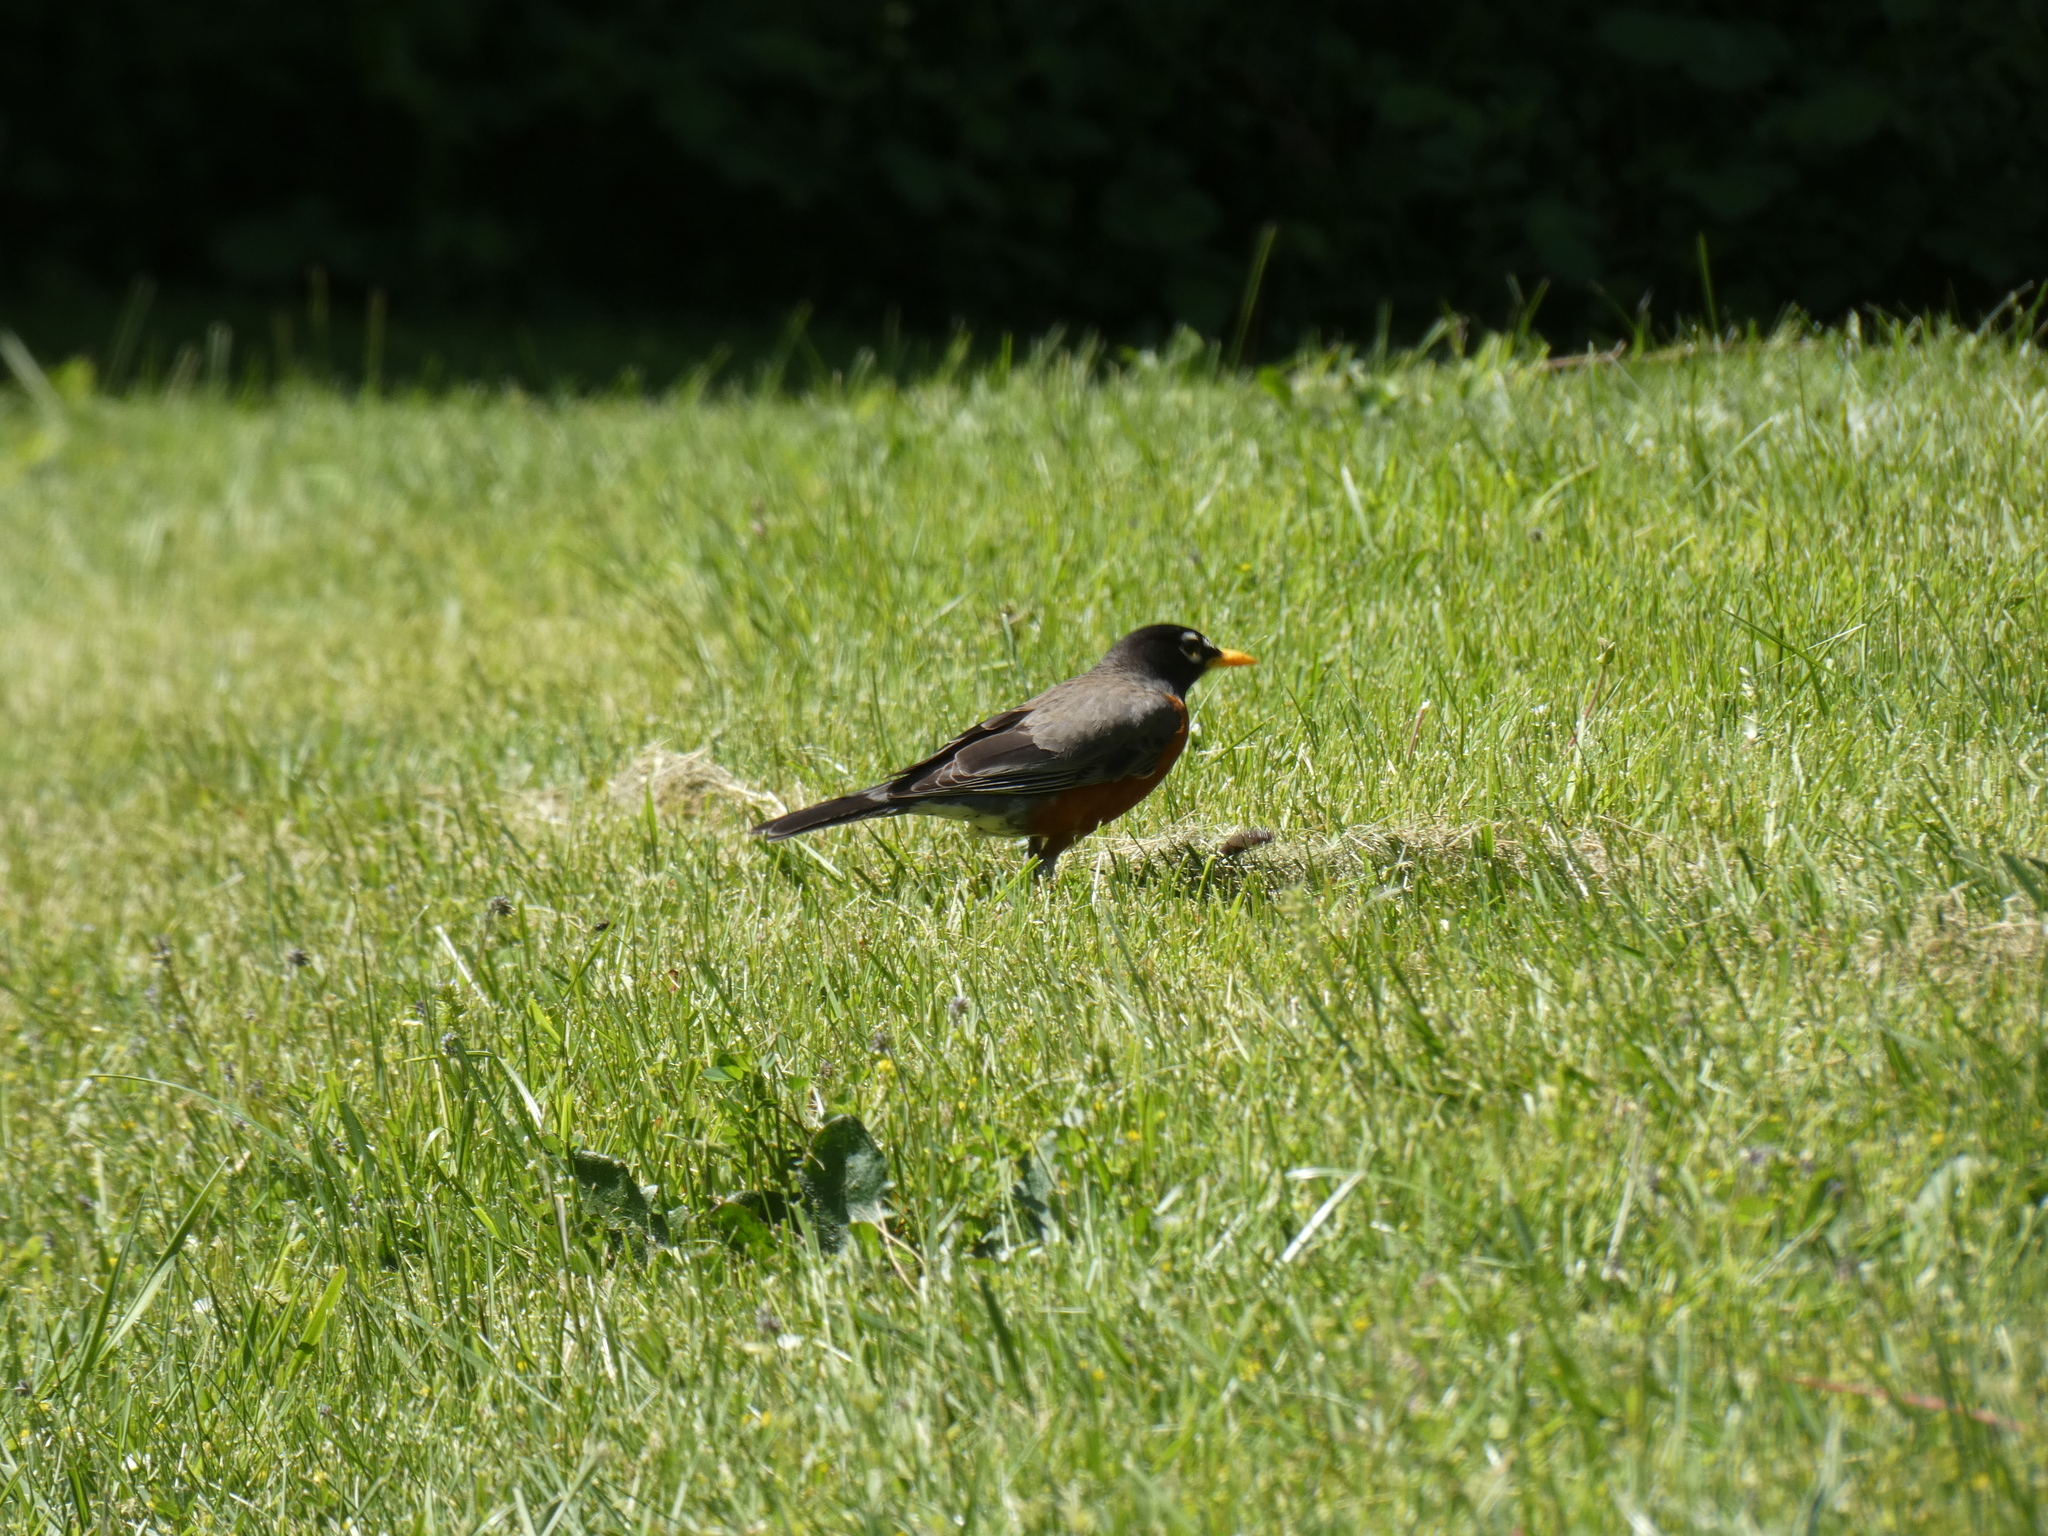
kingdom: Animalia
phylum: Chordata
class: Aves
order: Passeriformes
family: Turdidae
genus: Turdus
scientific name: Turdus migratorius
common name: American robin
